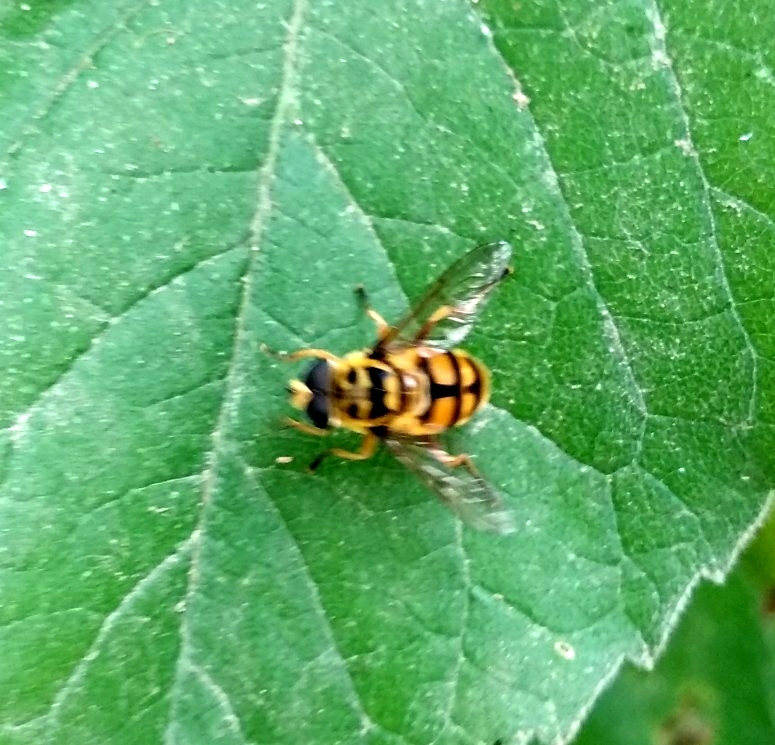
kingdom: Animalia
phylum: Arthropoda
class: Insecta
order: Diptera
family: Syrphidae
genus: Myathropa
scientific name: Myathropa florea
